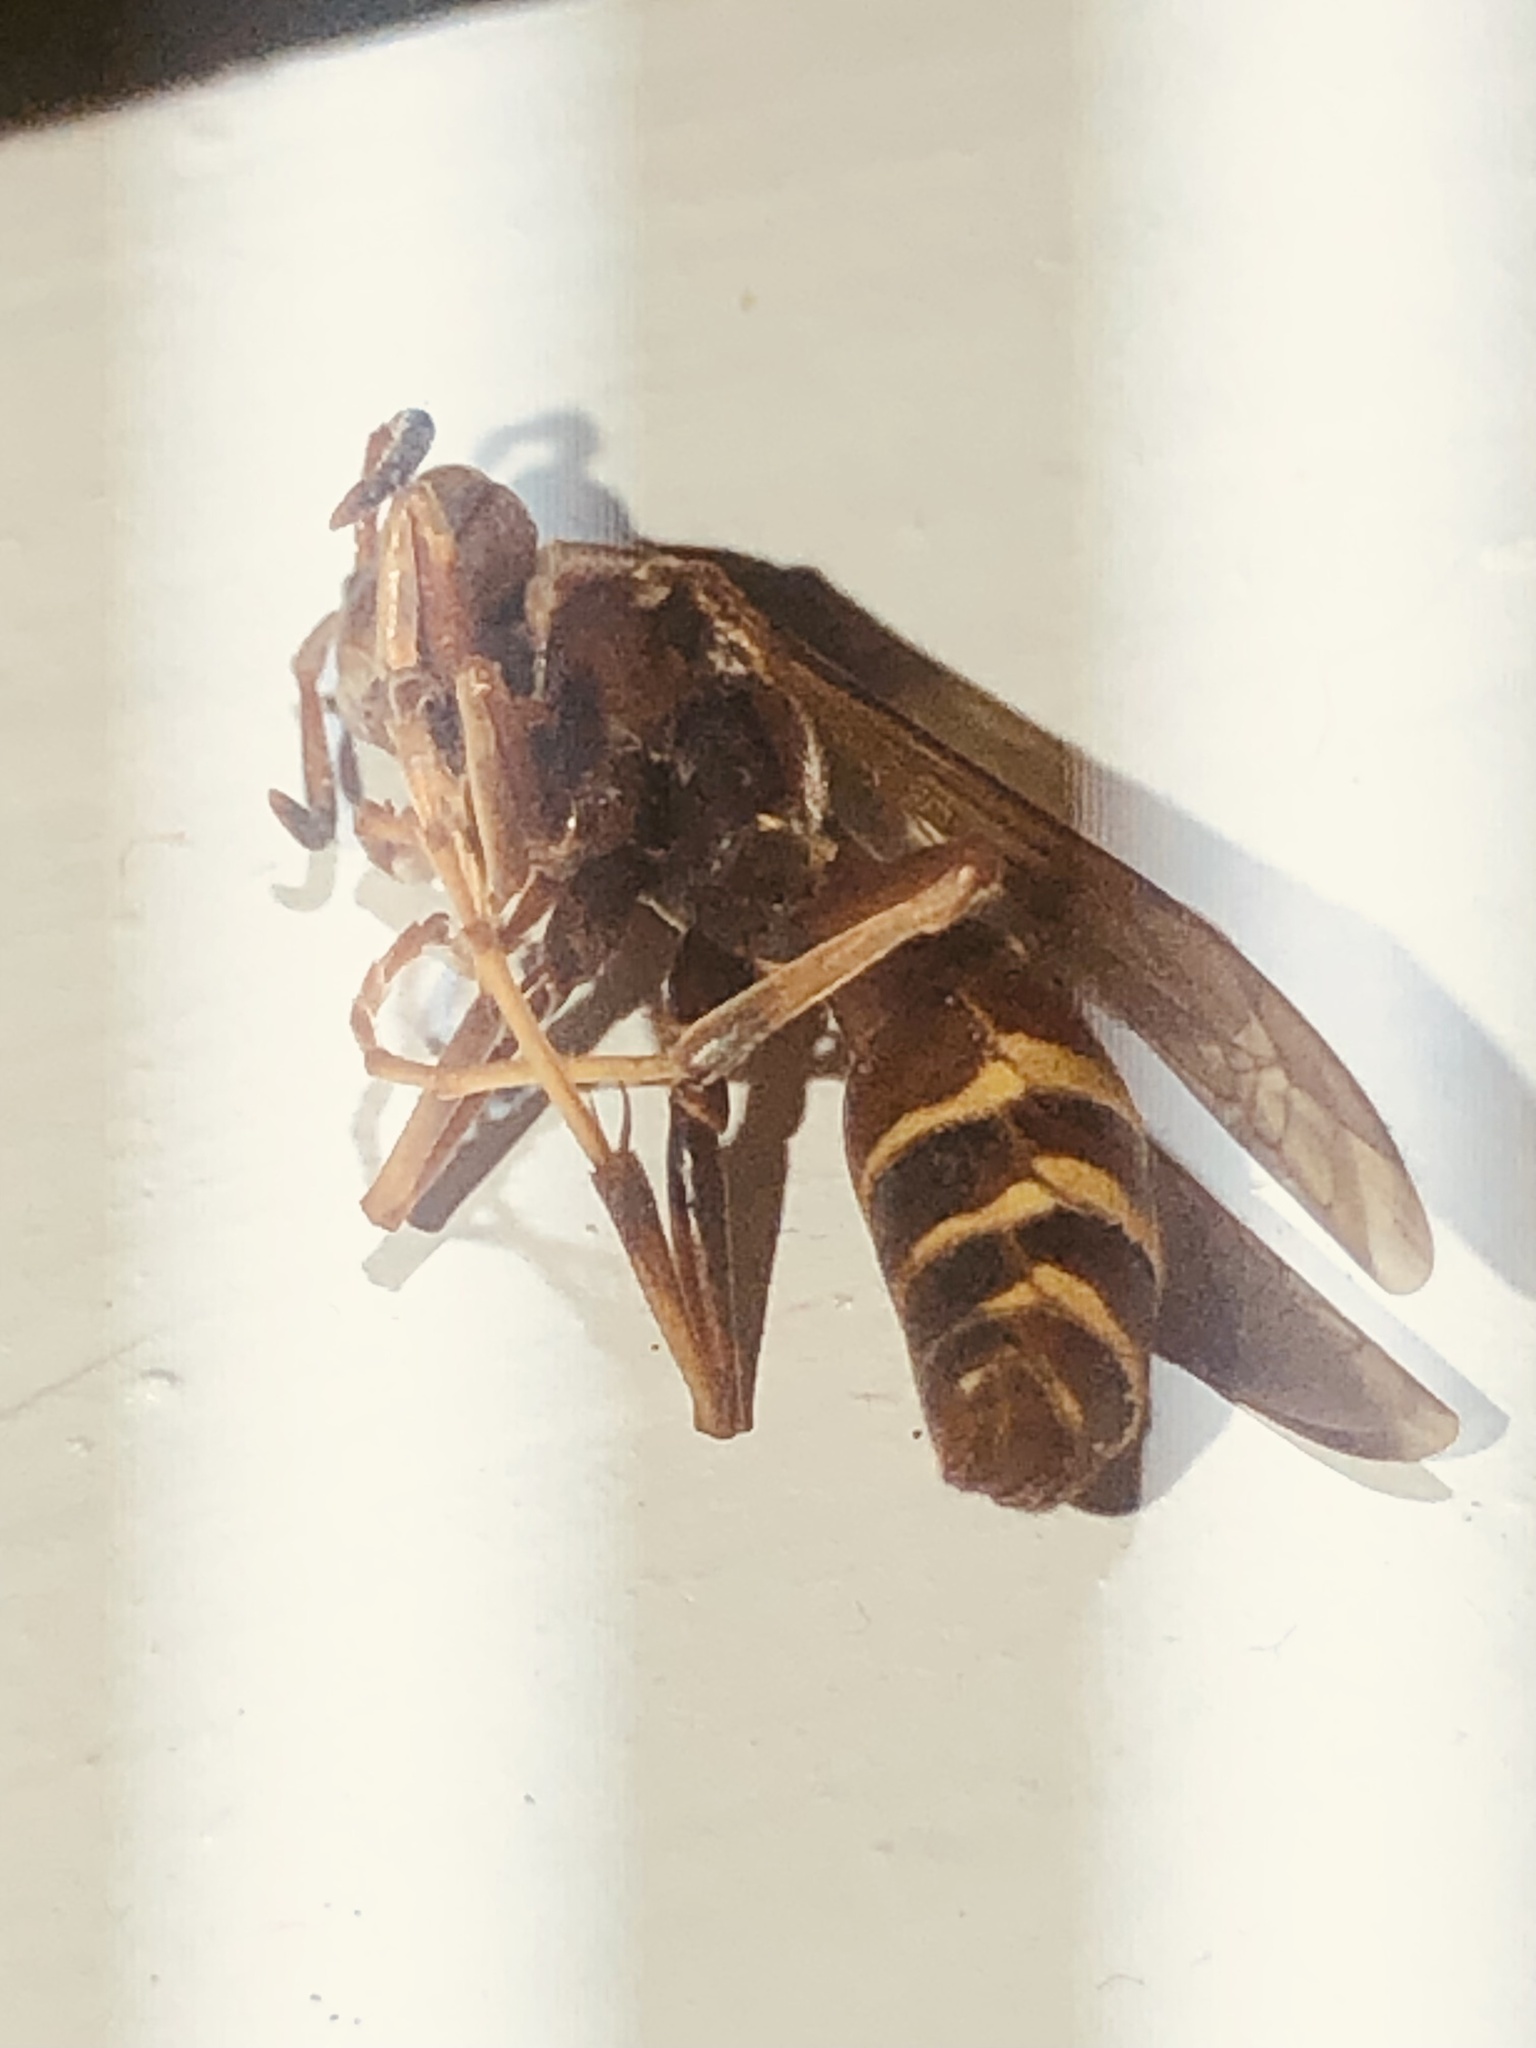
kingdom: Animalia
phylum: Arthropoda
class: Insecta
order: Hymenoptera
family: Vespidae
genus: Fuscopolistes
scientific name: Fuscopolistes
